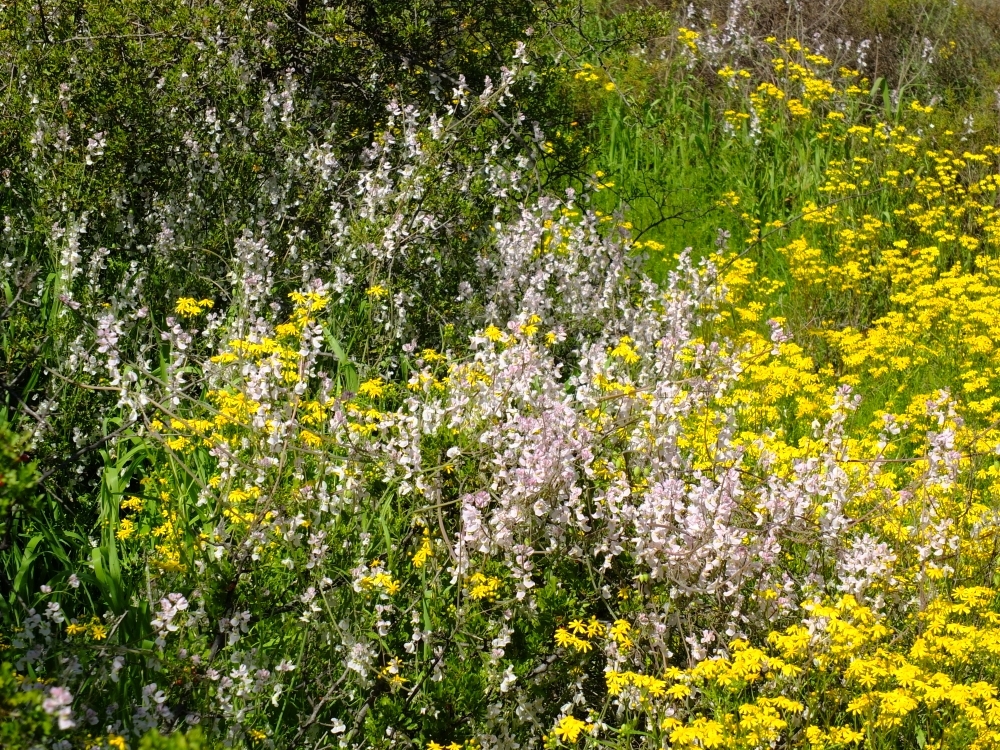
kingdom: Plantae
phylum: Tracheophyta
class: Magnoliopsida
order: Ranunculales
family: Papaveraceae
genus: Cysticapnos
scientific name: Cysticapnos vesicaria
